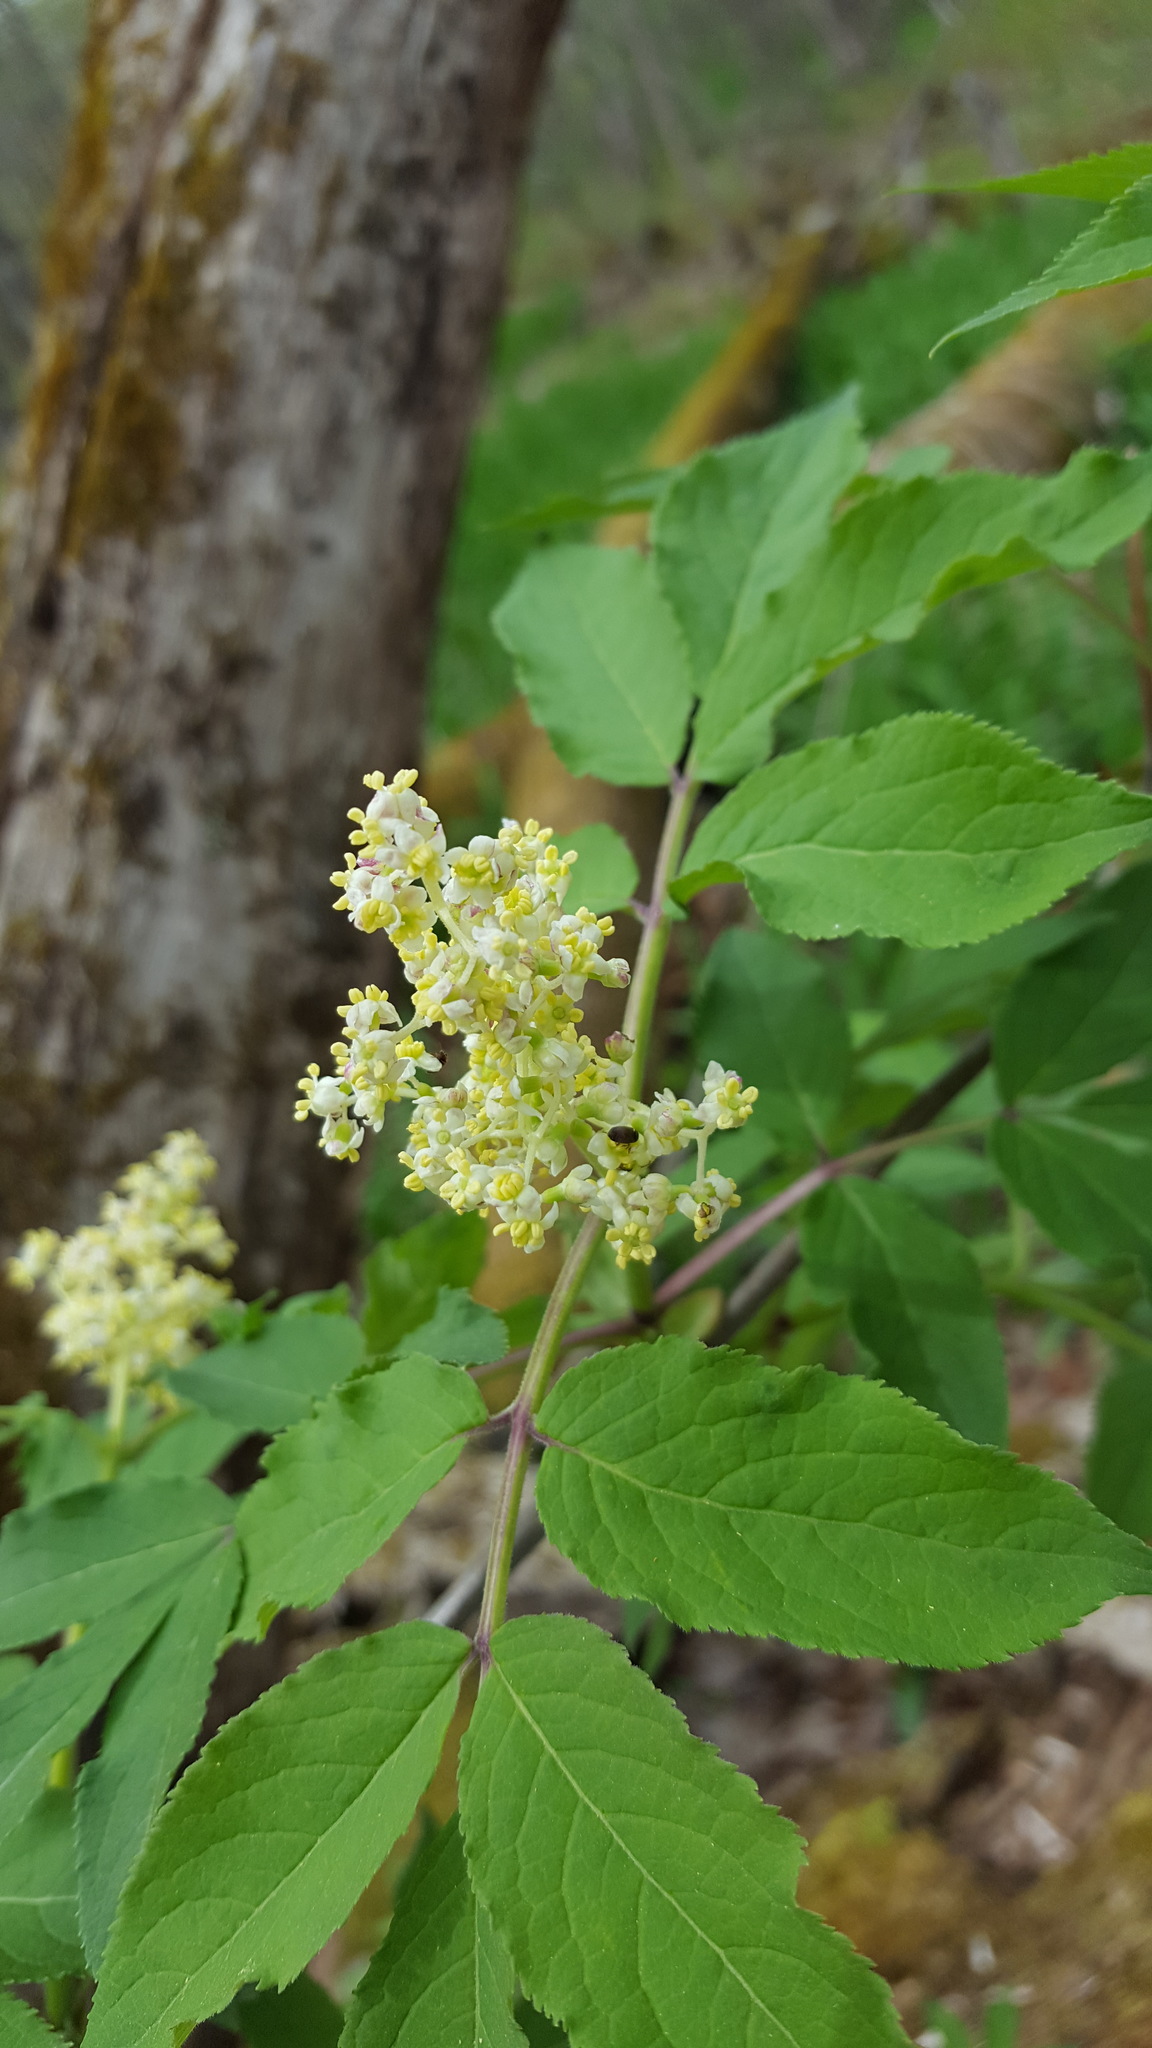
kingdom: Plantae
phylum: Tracheophyta
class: Magnoliopsida
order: Dipsacales
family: Viburnaceae
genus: Sambucus
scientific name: Sambucus racemosa
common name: Red-berried elder
